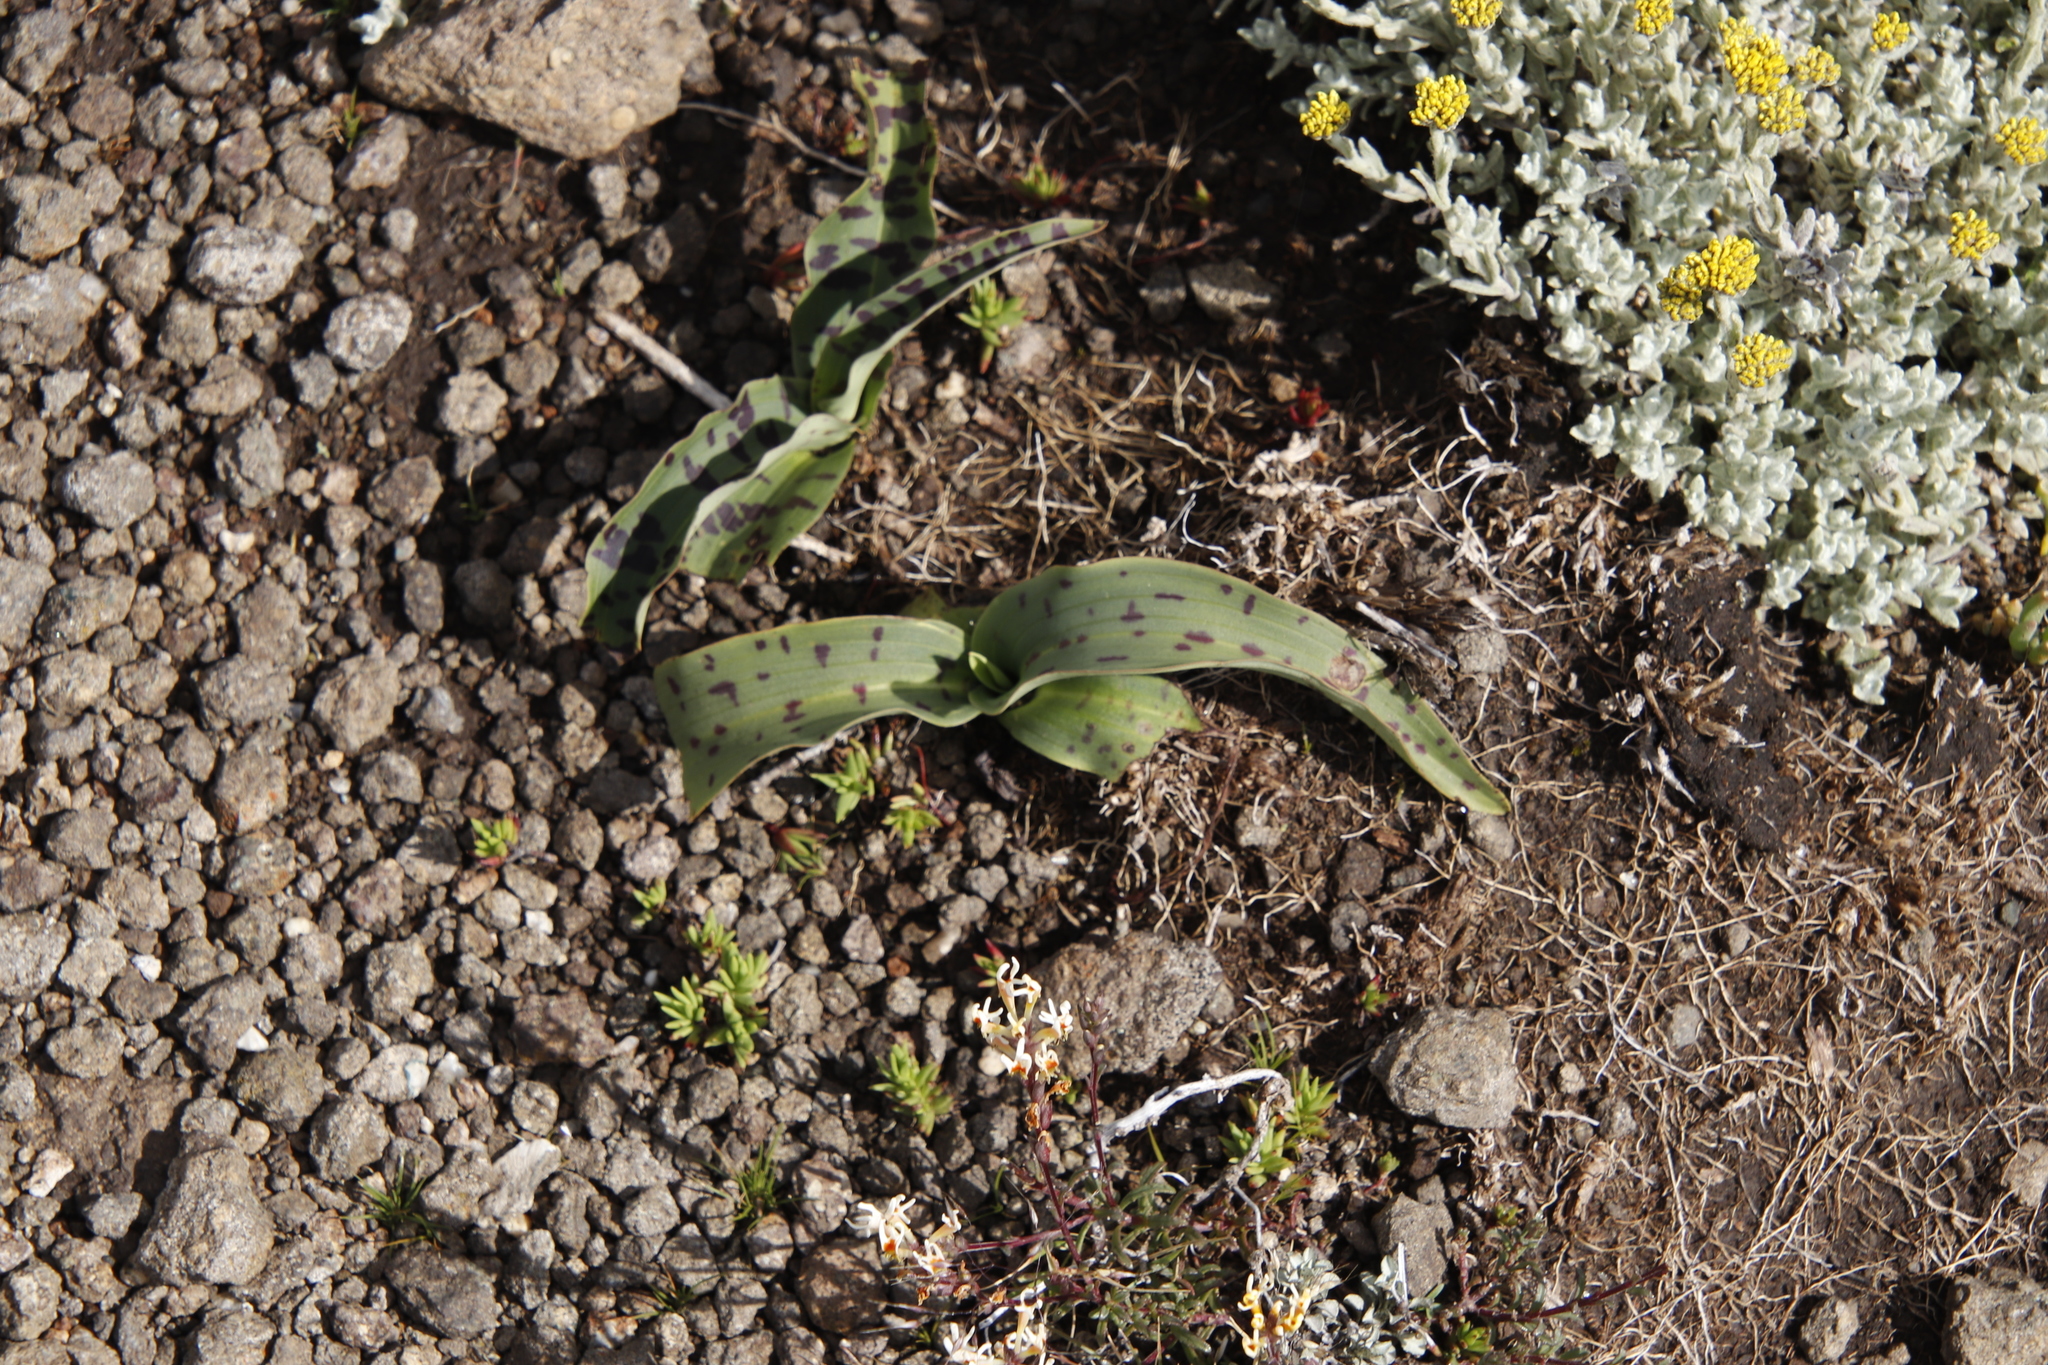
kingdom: Plantae
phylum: Tracheophyta
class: Liliopsida
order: Asparagales
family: Orchidaceae
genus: Disa
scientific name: Disa fragrans
